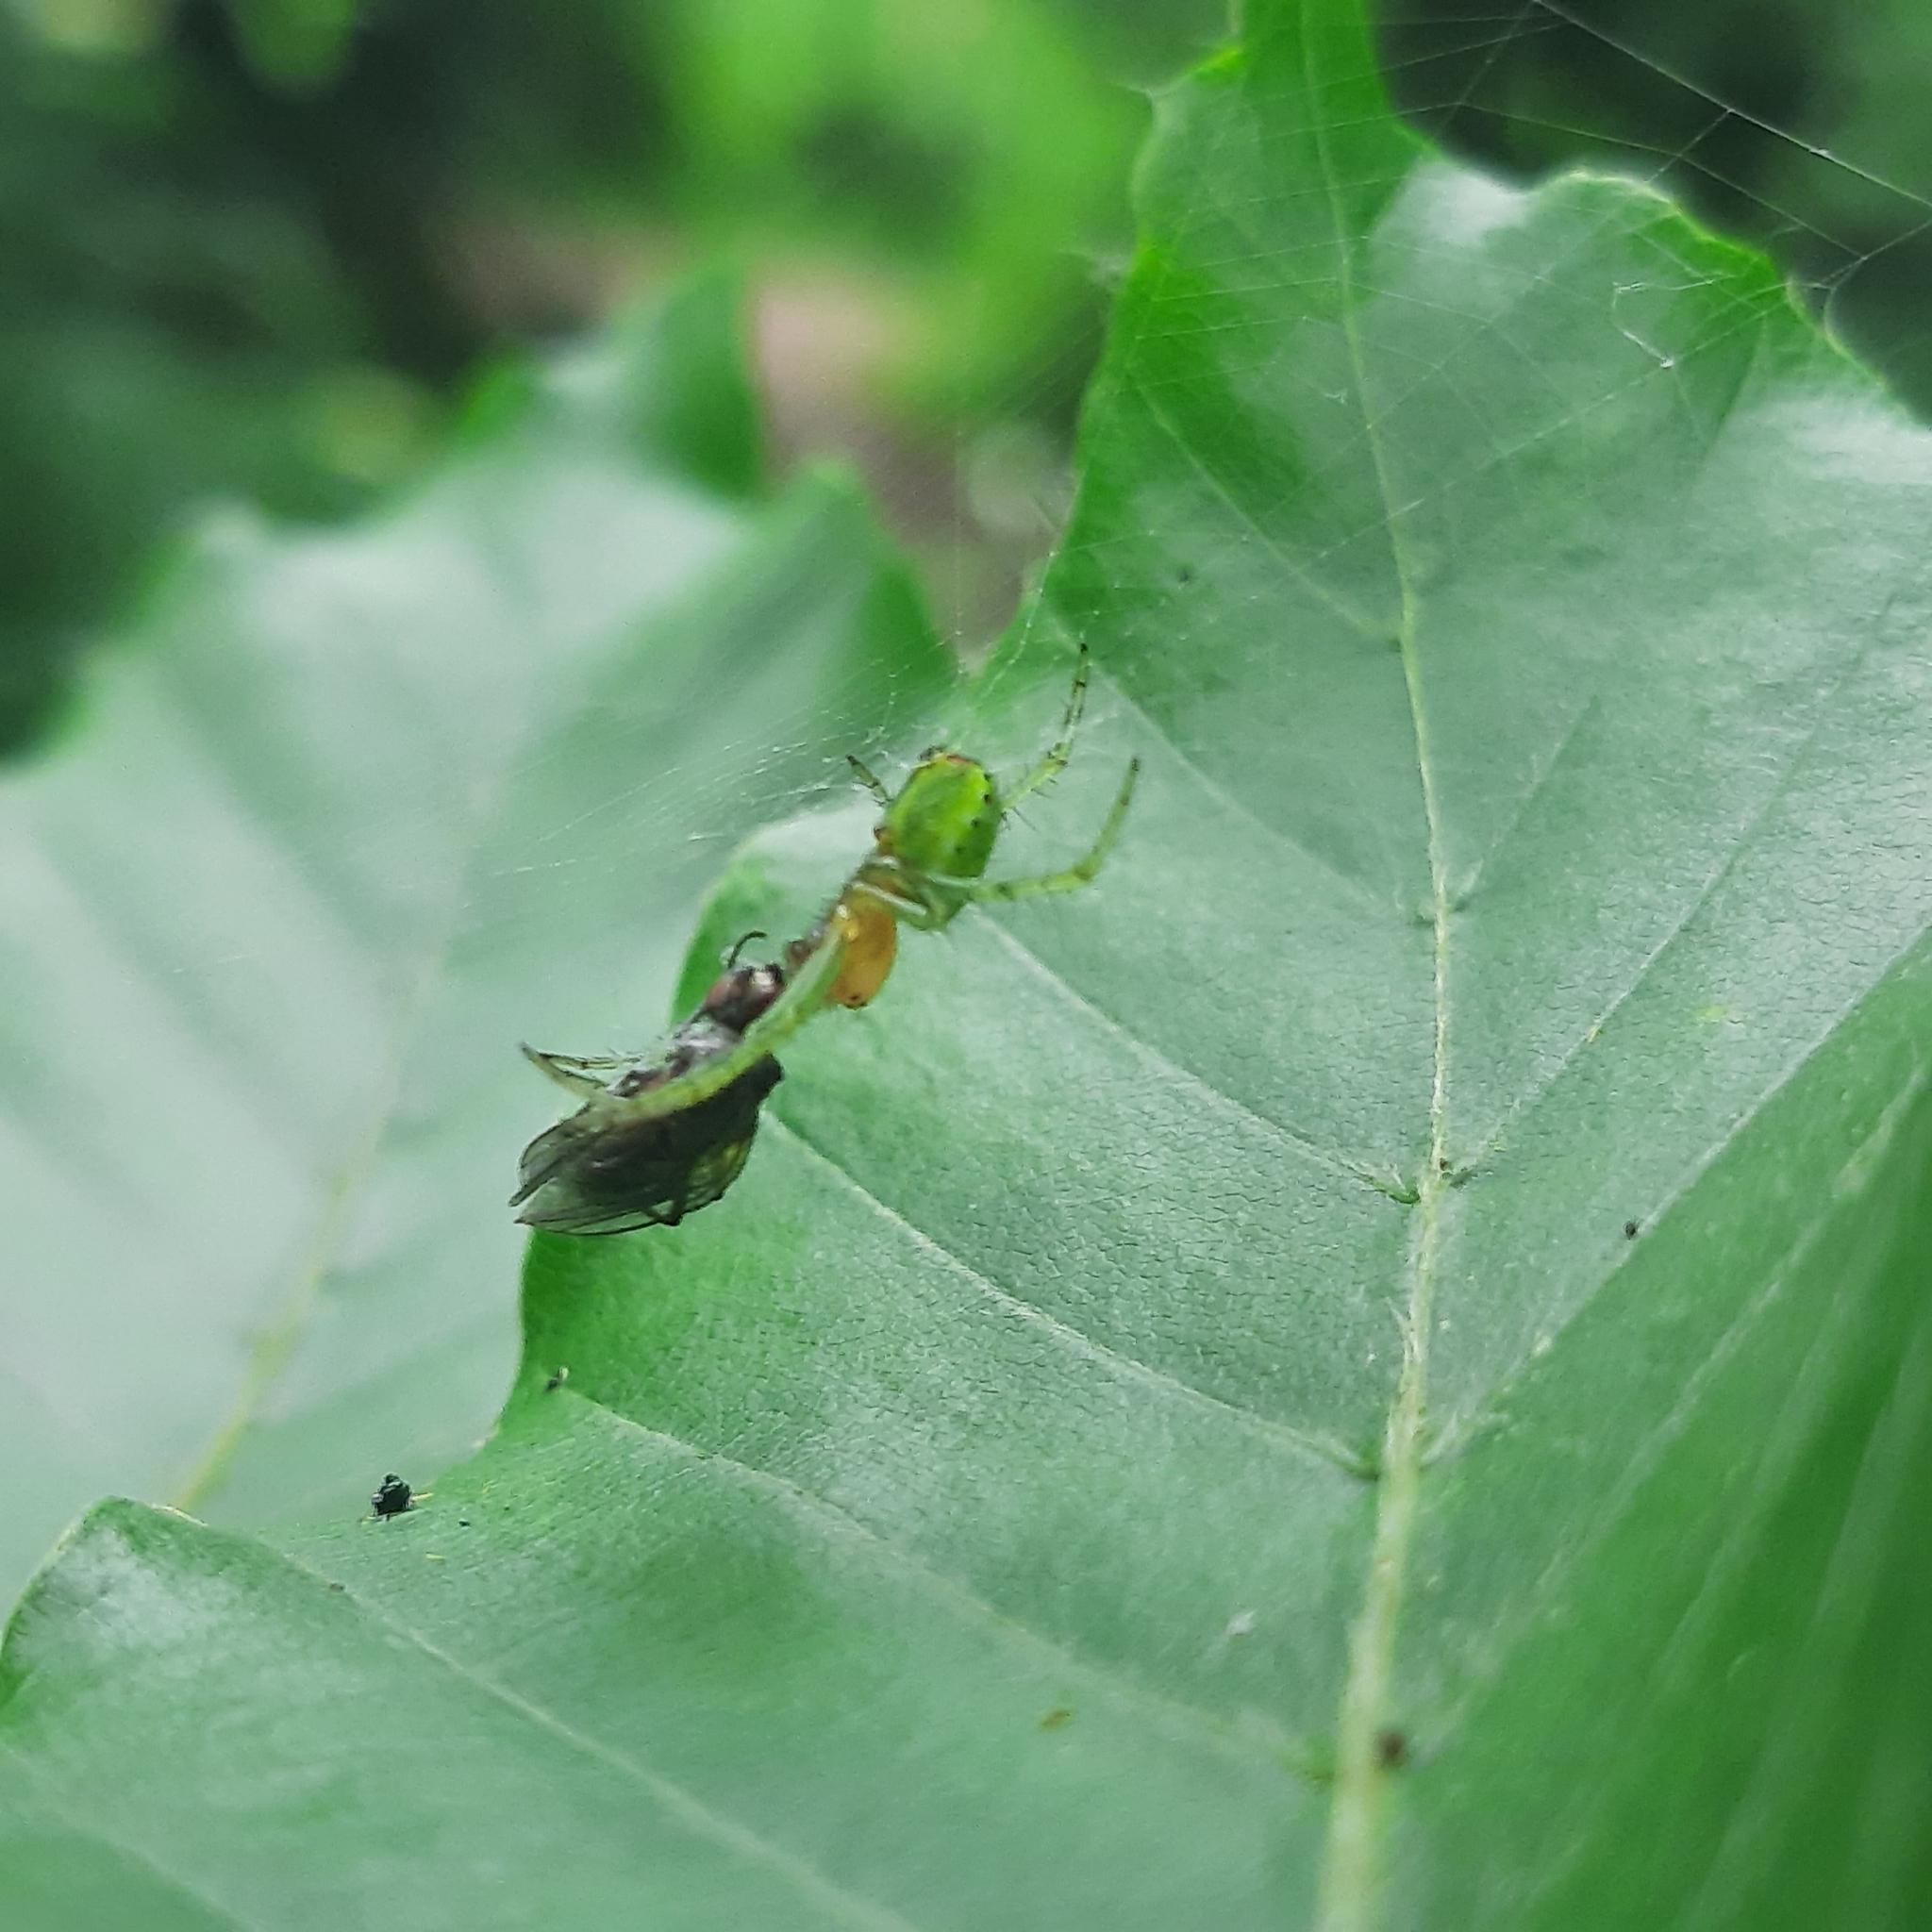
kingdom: Animalia
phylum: Arthropoda
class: Arachnida
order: Araneae
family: Araneidae
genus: Araniella
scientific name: Araniella
